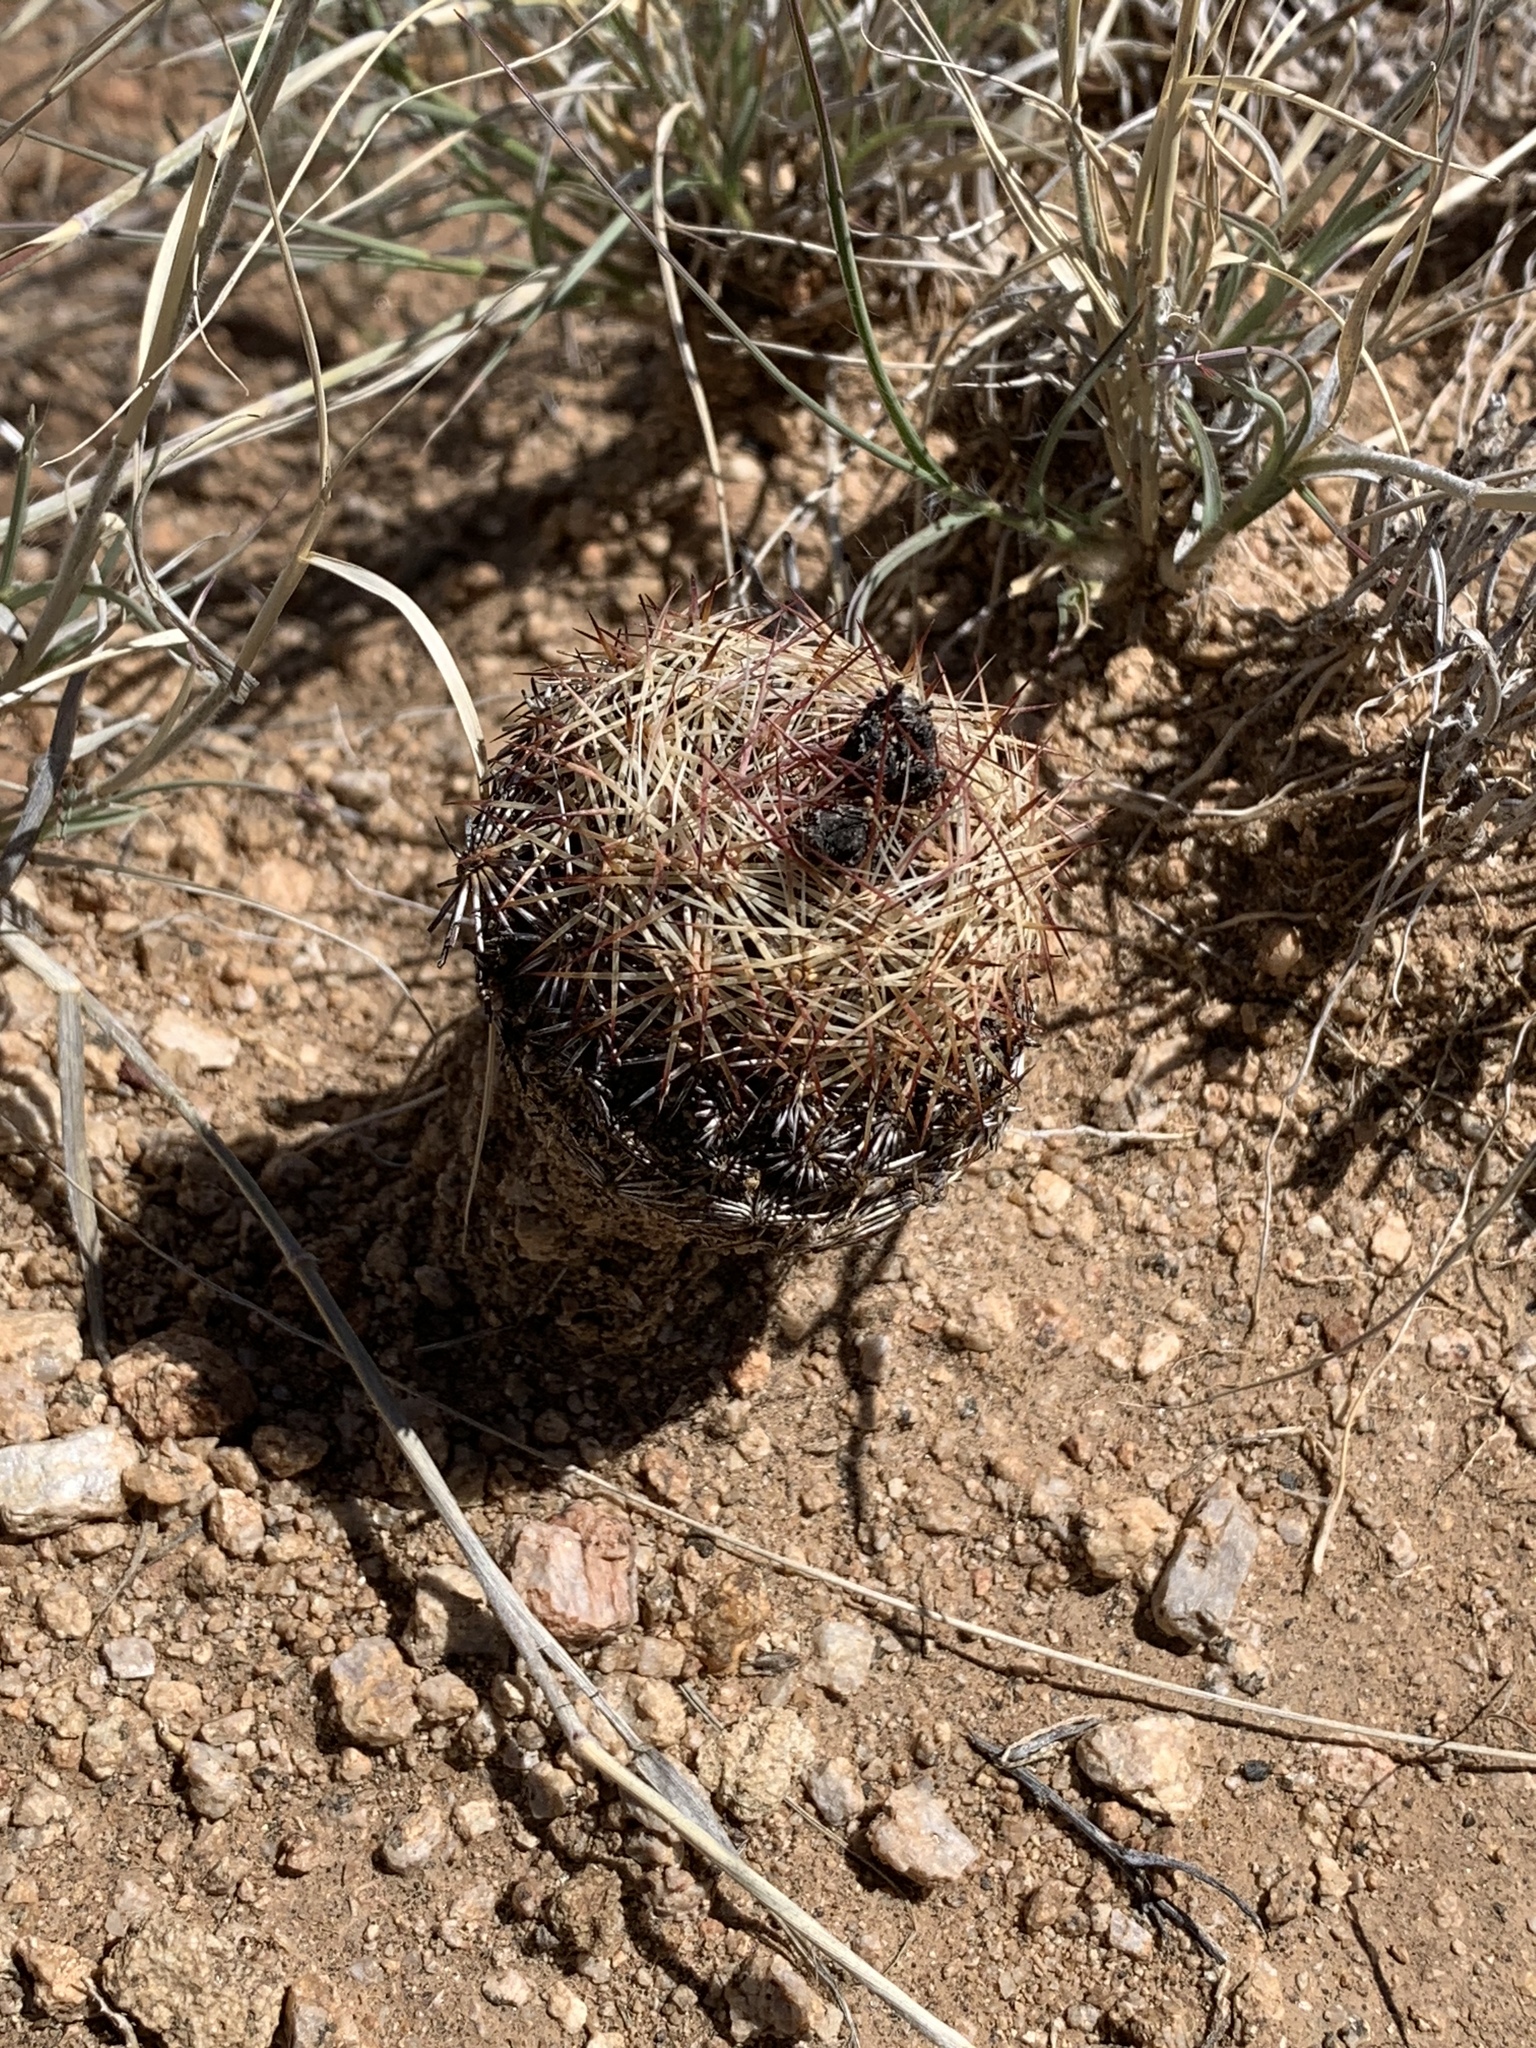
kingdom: Plantae
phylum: Tracheophyta
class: Magnoliopsida
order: Caryophyllales
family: Cactaceae
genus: Pelecyphora
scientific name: Pelecyphora vivipara
